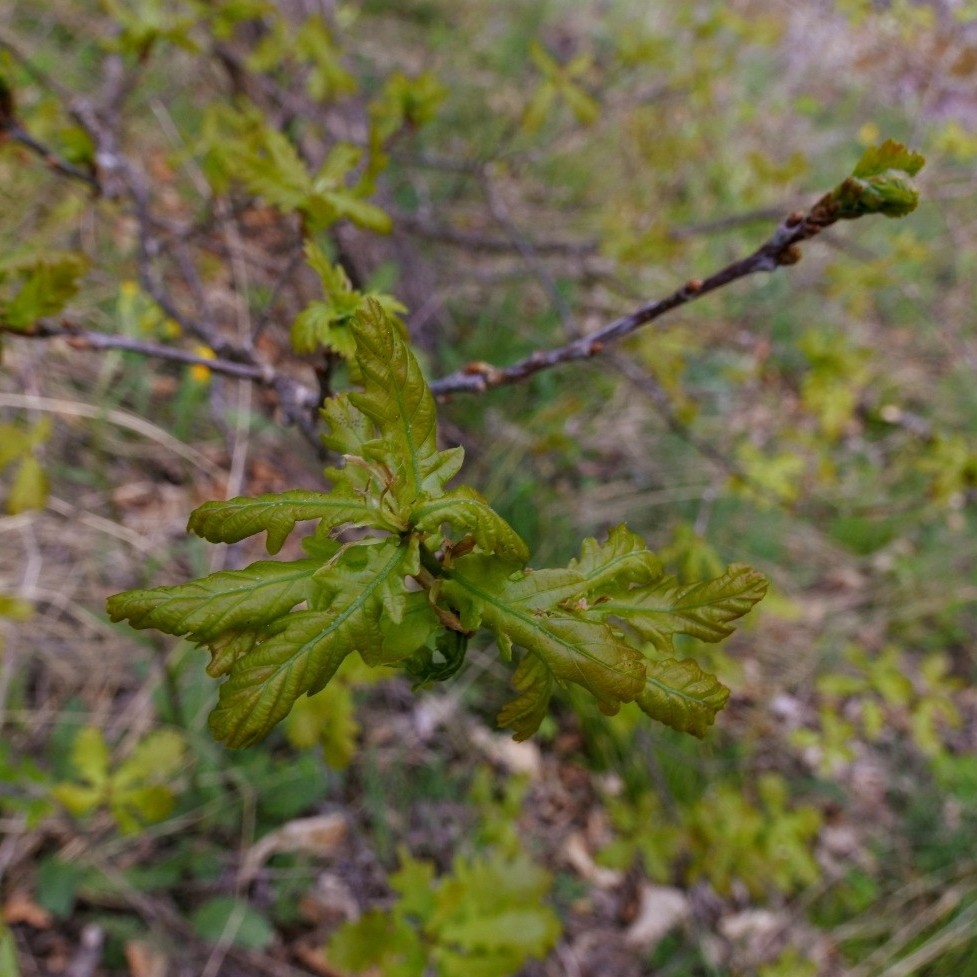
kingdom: Plantae
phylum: Tracheophyta
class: Magnoliopsida
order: Fagales
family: Fagaceae
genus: Quercus
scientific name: Quercus robur
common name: Pedunculate oak
